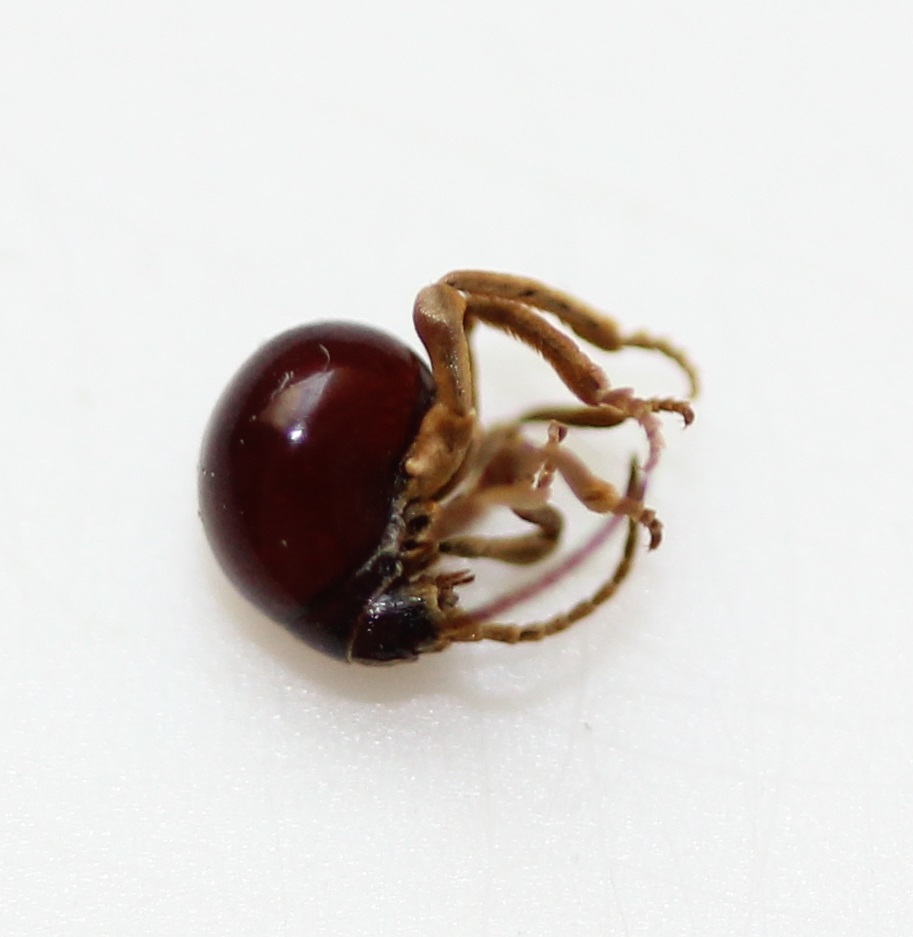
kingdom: Animalia
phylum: Arthropoda
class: Insecta
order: Coleoptera
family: Ptinidae
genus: Gibbium
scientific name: Gibbium aequinoctiale
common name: Smooth spider beetle
